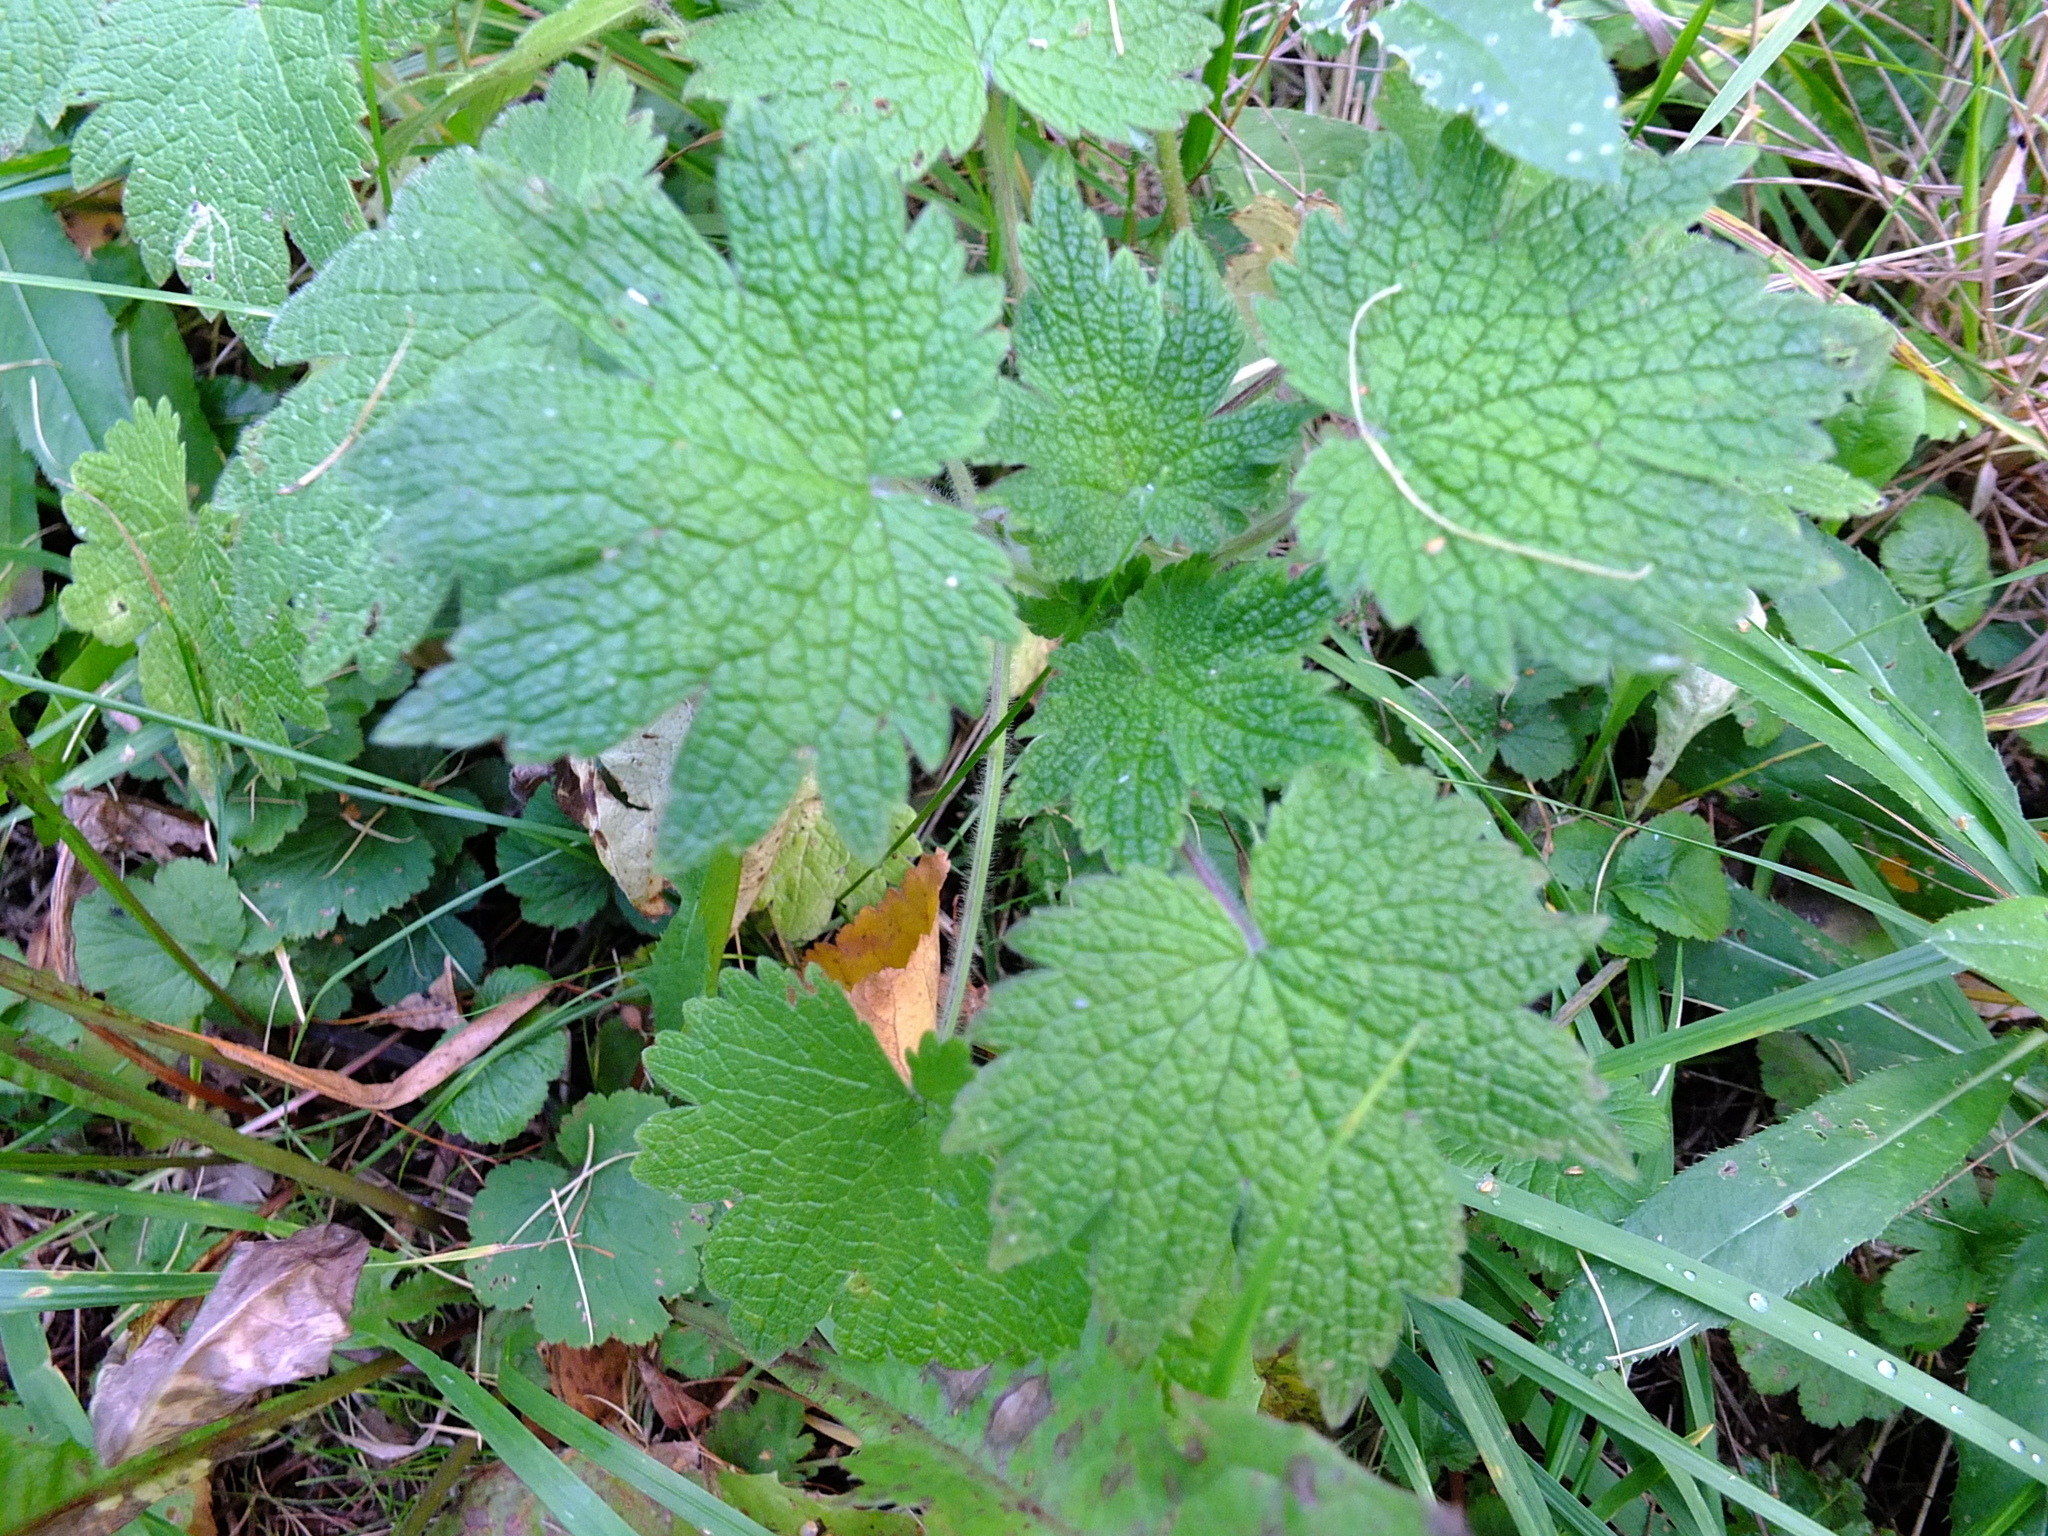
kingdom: Plantae
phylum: Tracheophyta
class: Magnoliopsida
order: Lamiales
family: Lamiaceae
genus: Leonurus
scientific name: Leonurus quinquelobatus
